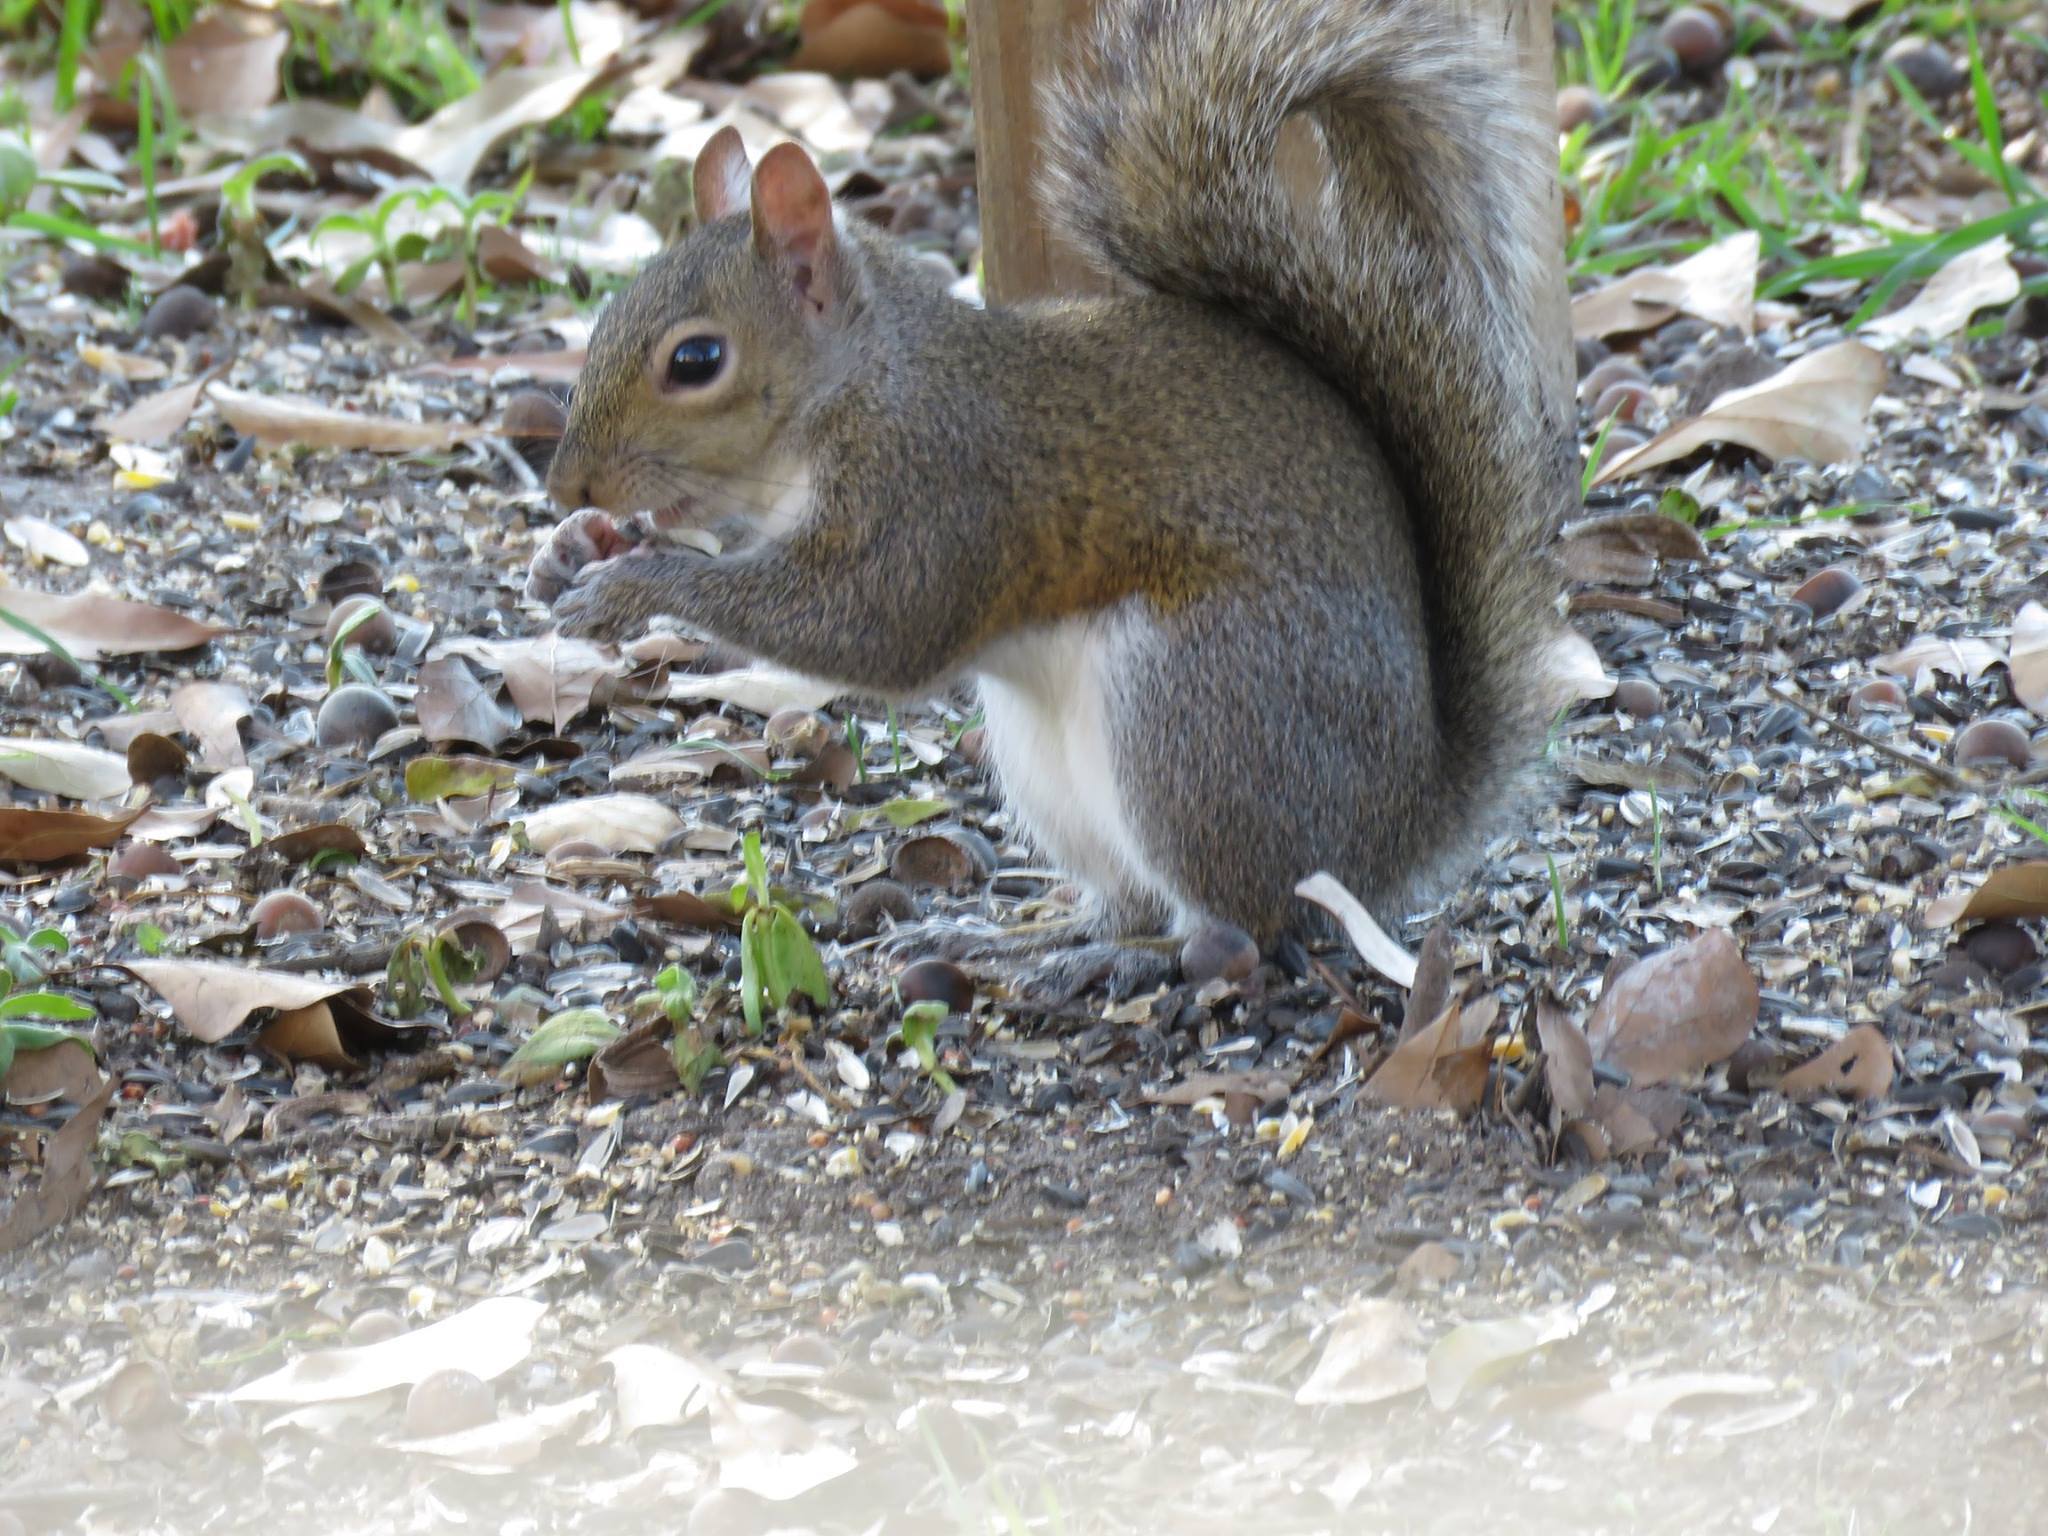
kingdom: Animalia
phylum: Chordata
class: Mammalia
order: Rodentia
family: Sciuridae
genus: Sciurus
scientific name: Sciurus carolinensis
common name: Eastern gray squirrel
